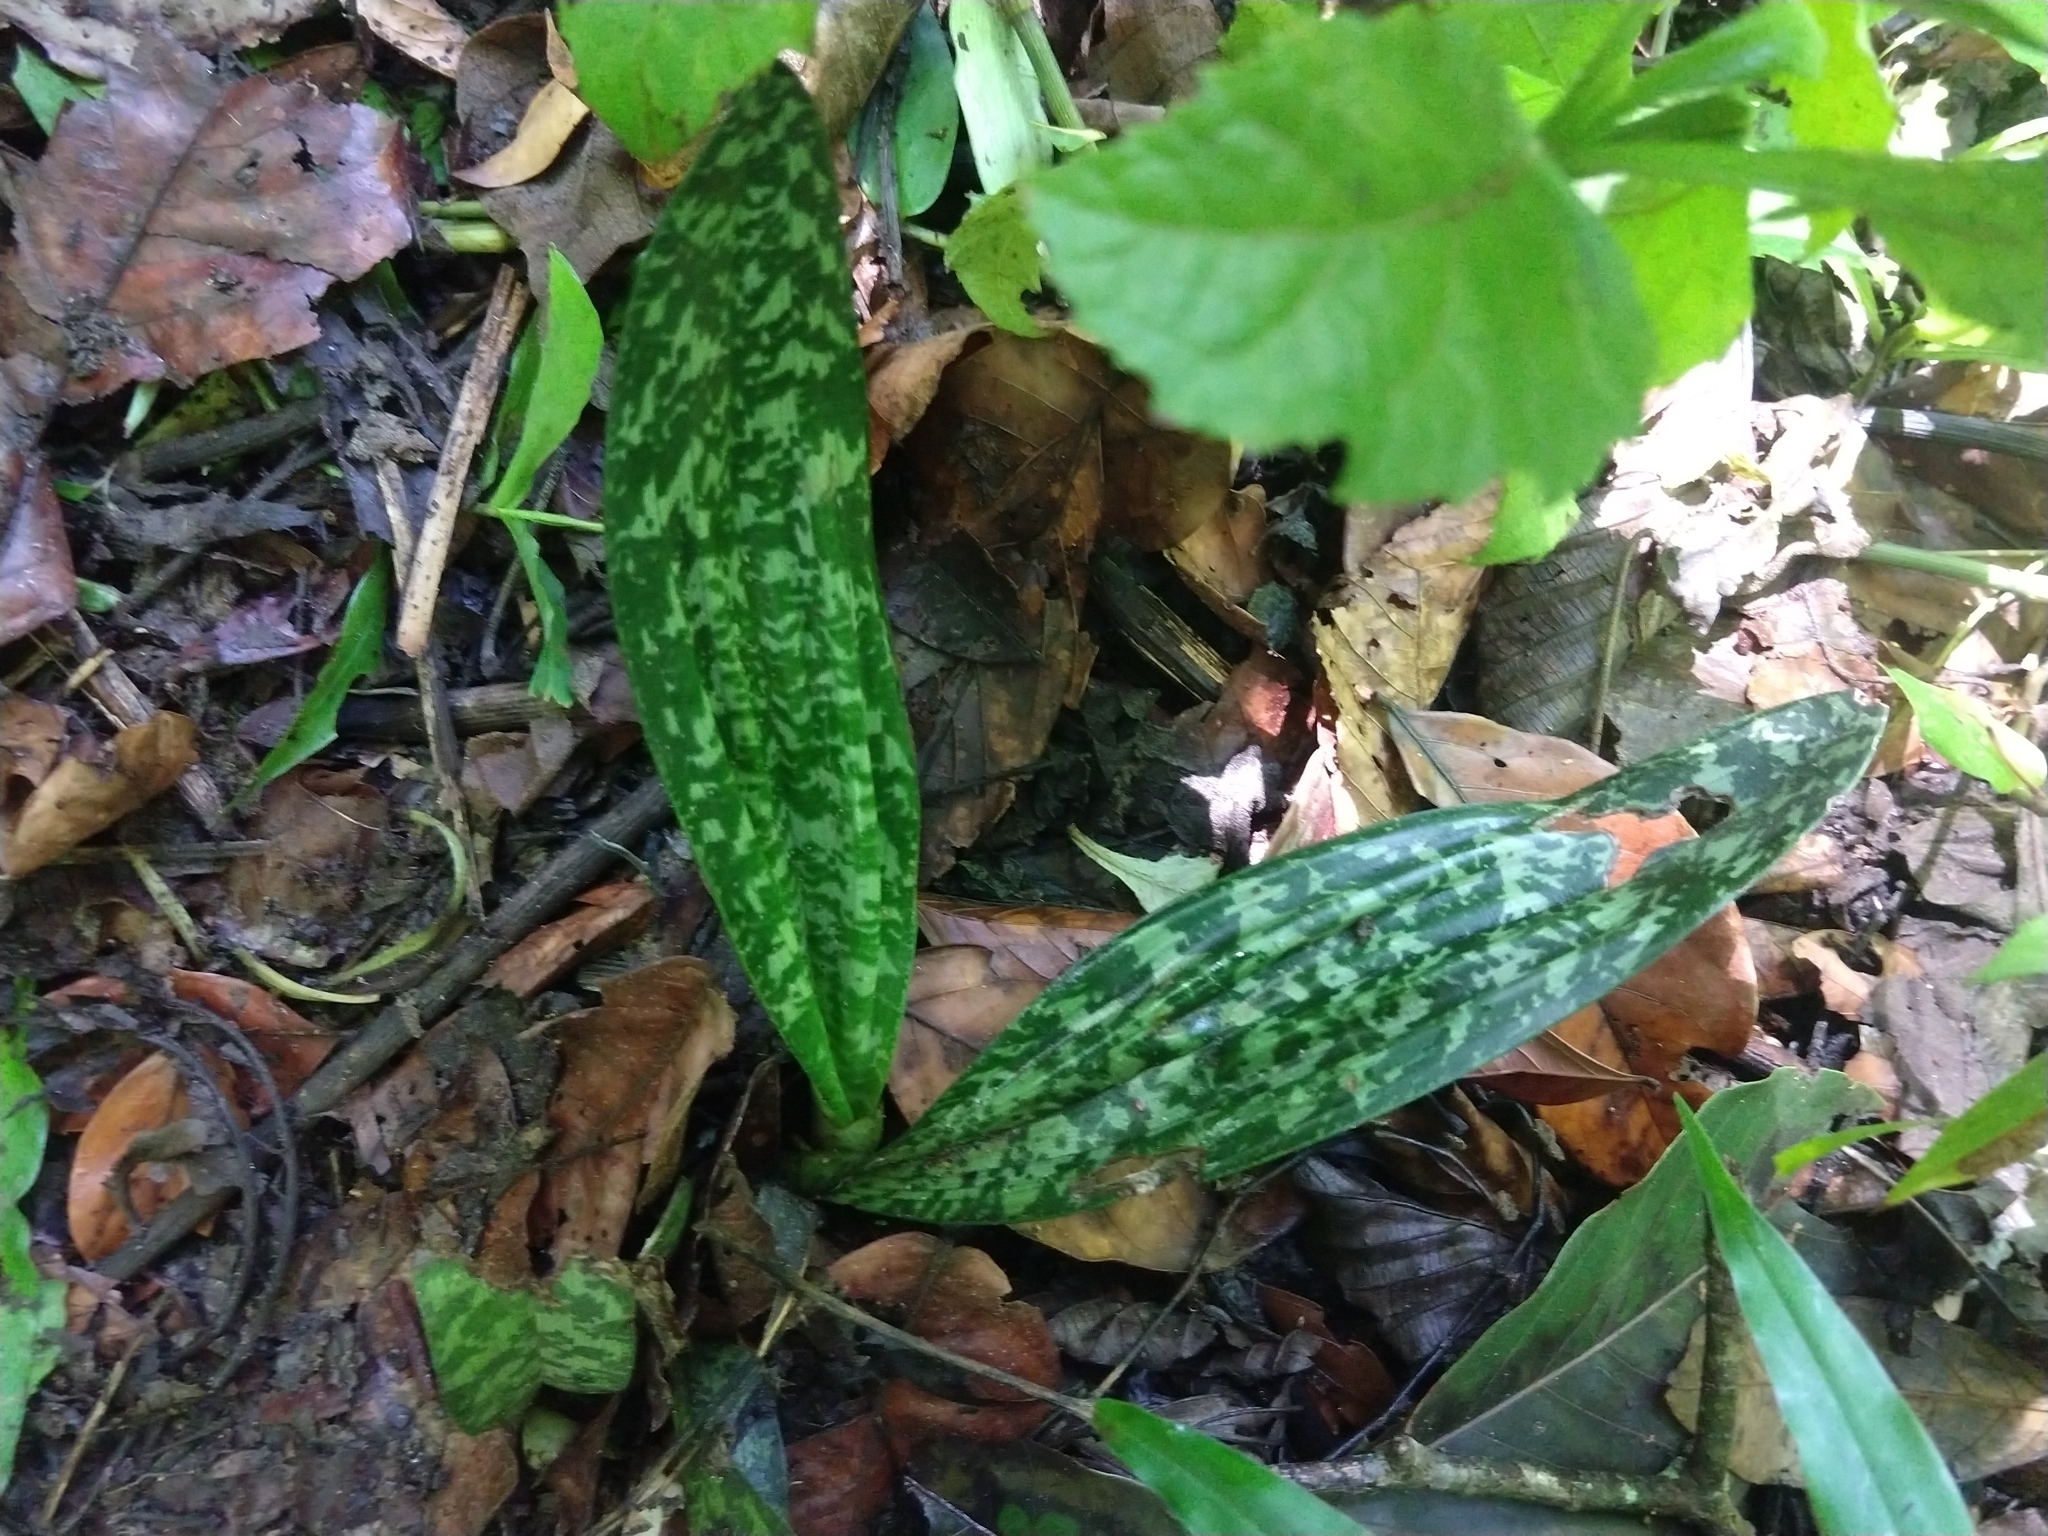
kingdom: Plantae
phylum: Tracheophyta
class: Liliopsida
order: Asparagales
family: Orchidaceae
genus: Eulophia
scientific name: Eulophia maculata
